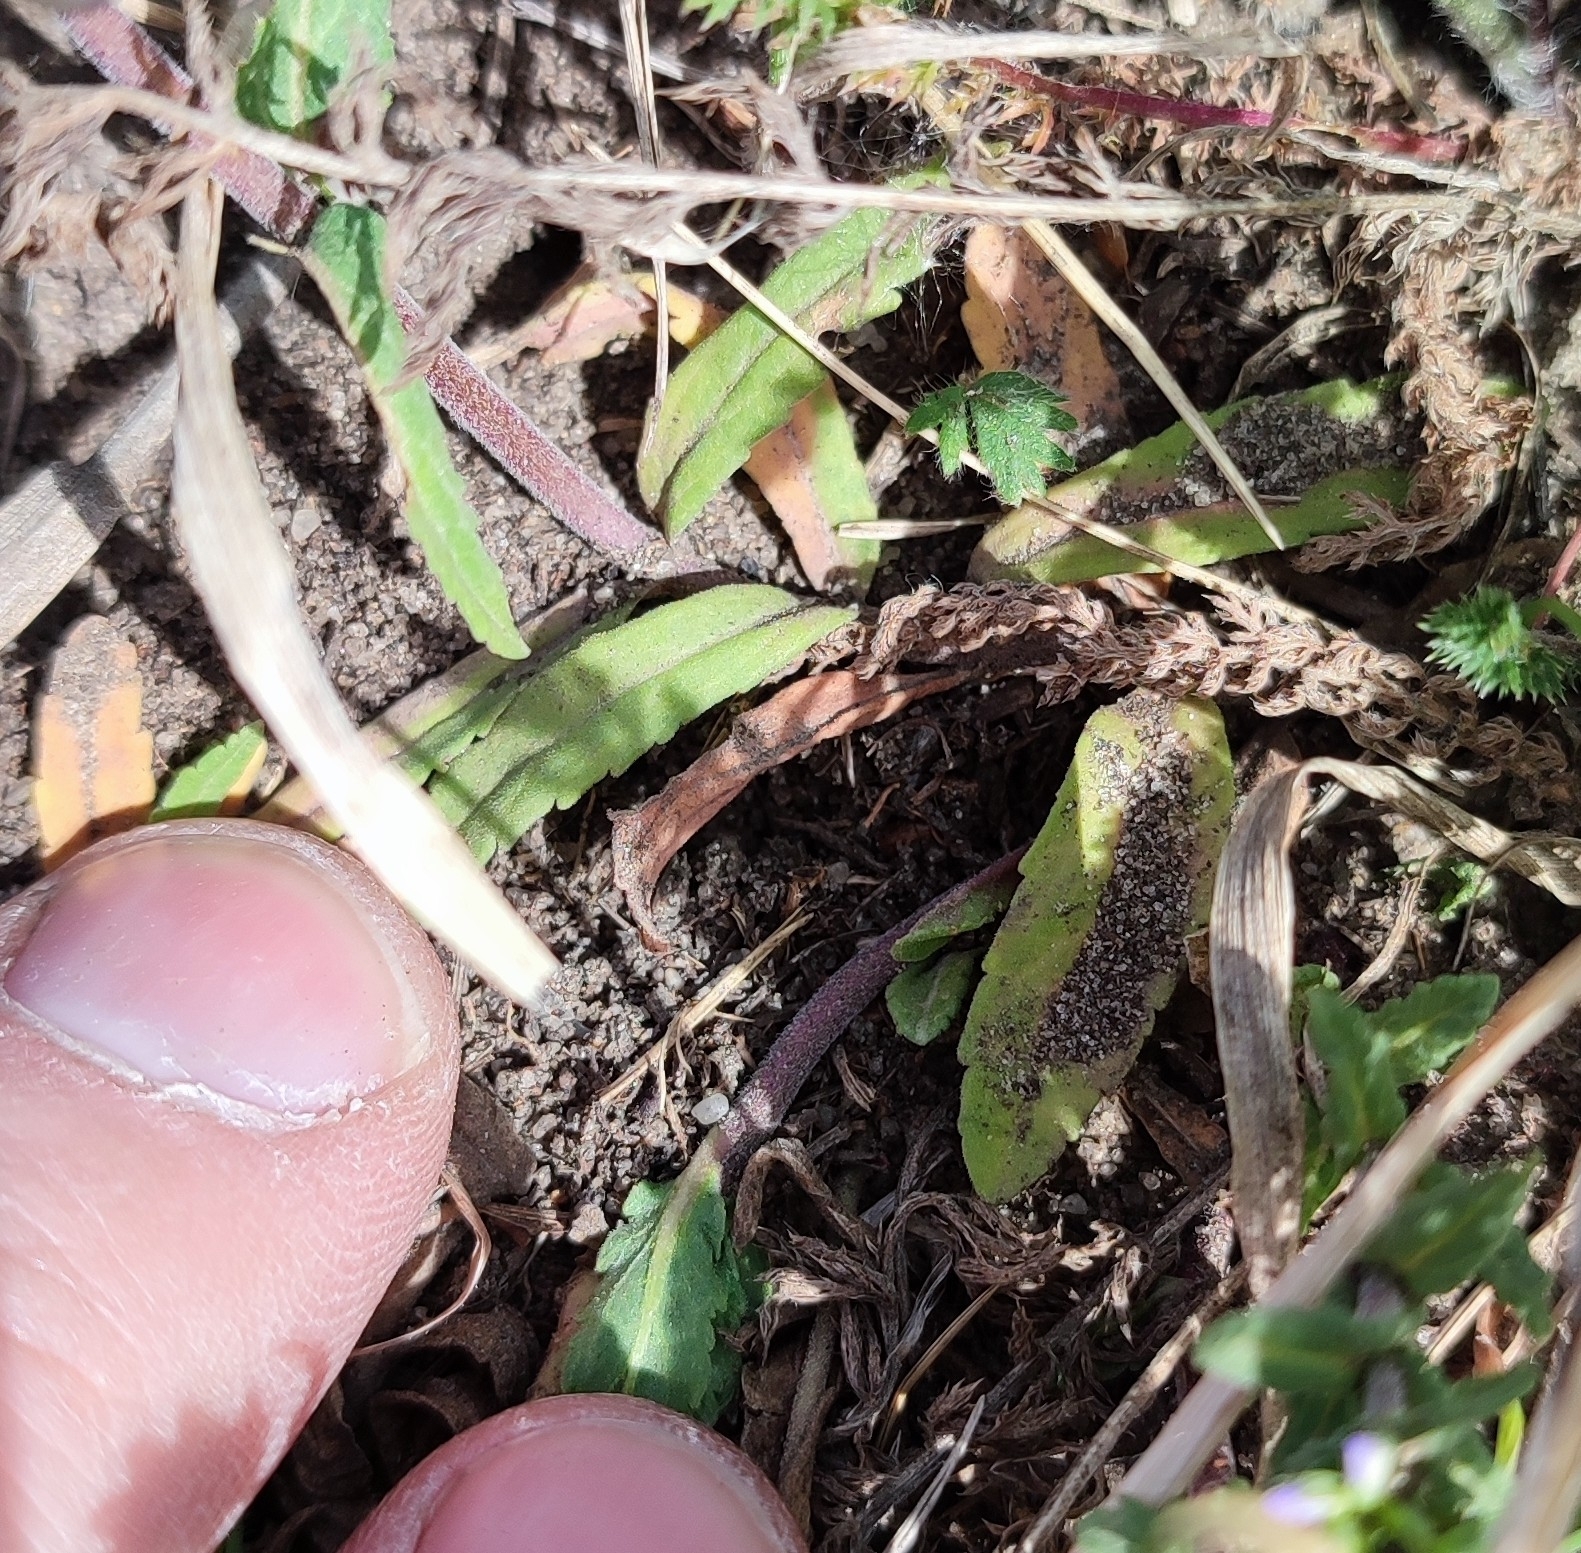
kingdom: Plantae
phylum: Tracheophyta
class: Magnoliopsida
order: Lamiales
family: Plantaginaceae
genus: Veronica
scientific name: Veronica prostrata
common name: Prostrate speedwell
